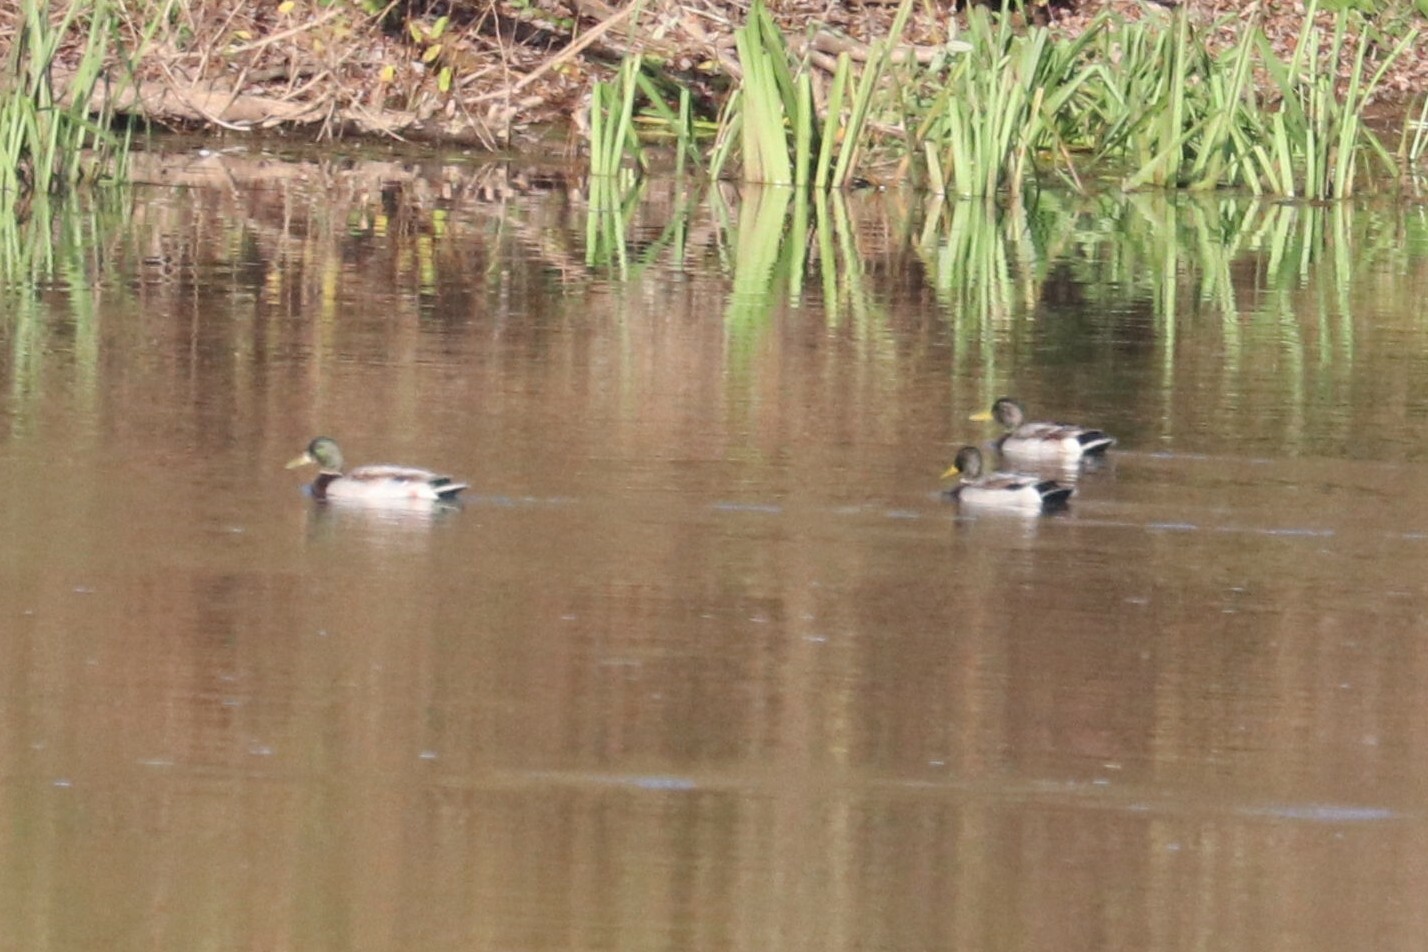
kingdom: Animalia
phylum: Chordata
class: Aves
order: Anseriformes
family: Anatidae
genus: Anas
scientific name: Anas platyrhynchos
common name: Mallard
